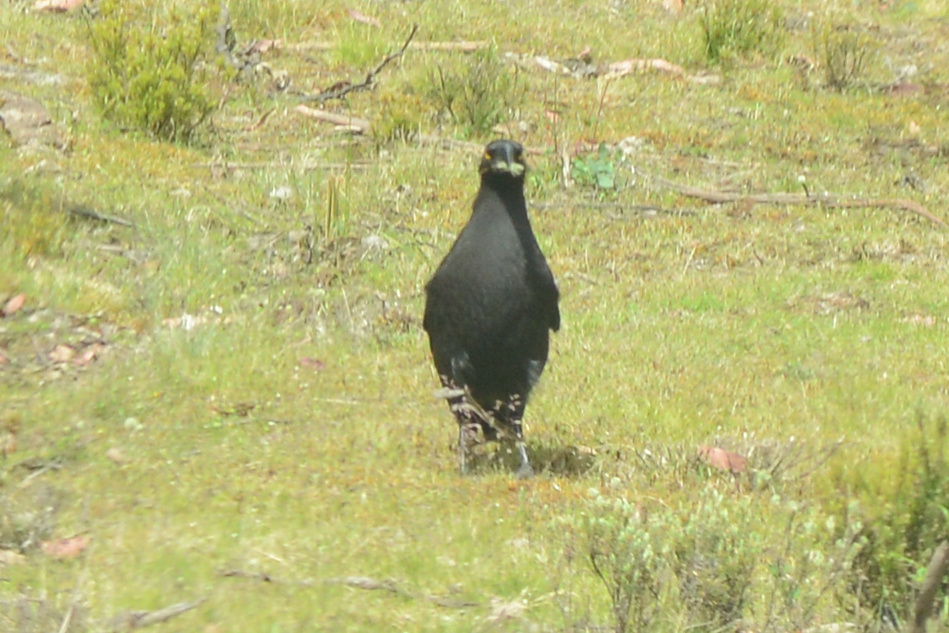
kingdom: Animalia
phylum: Chordata
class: Aves
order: Passeriformes
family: Cracticidae
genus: Strepera
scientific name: Strepera fuliginosa
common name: Black currawong
